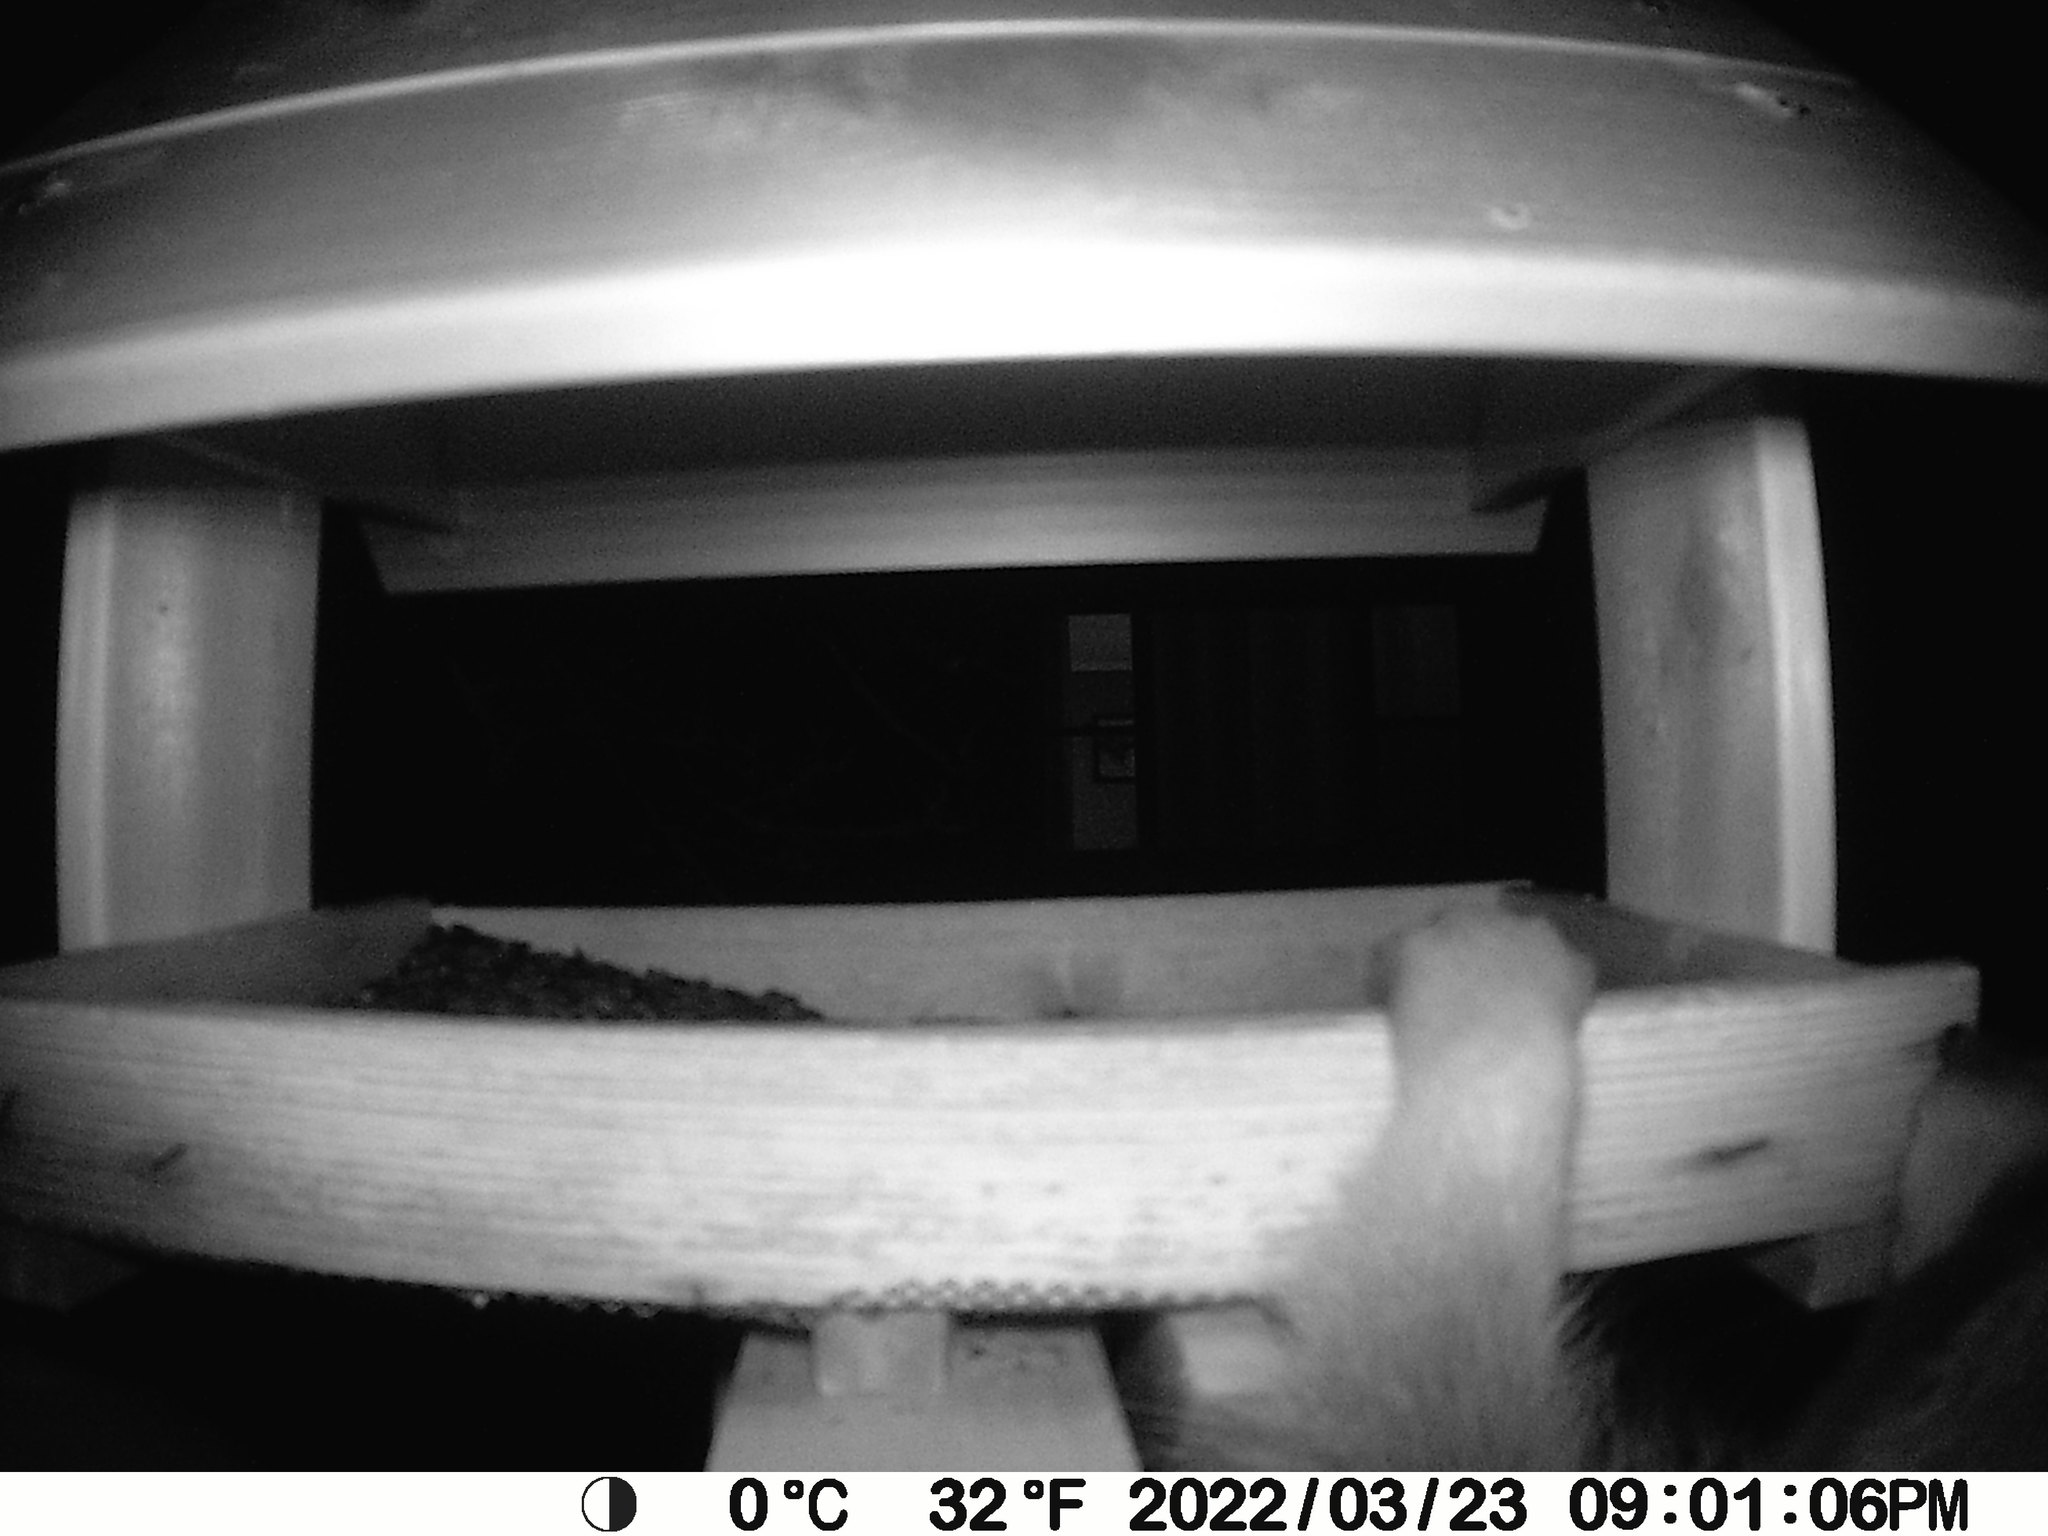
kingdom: Animalia
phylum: Chordata
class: Mammalia
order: Carnivora
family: Procyonidae
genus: Procyon
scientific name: Procyon lotor
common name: Raccoon
